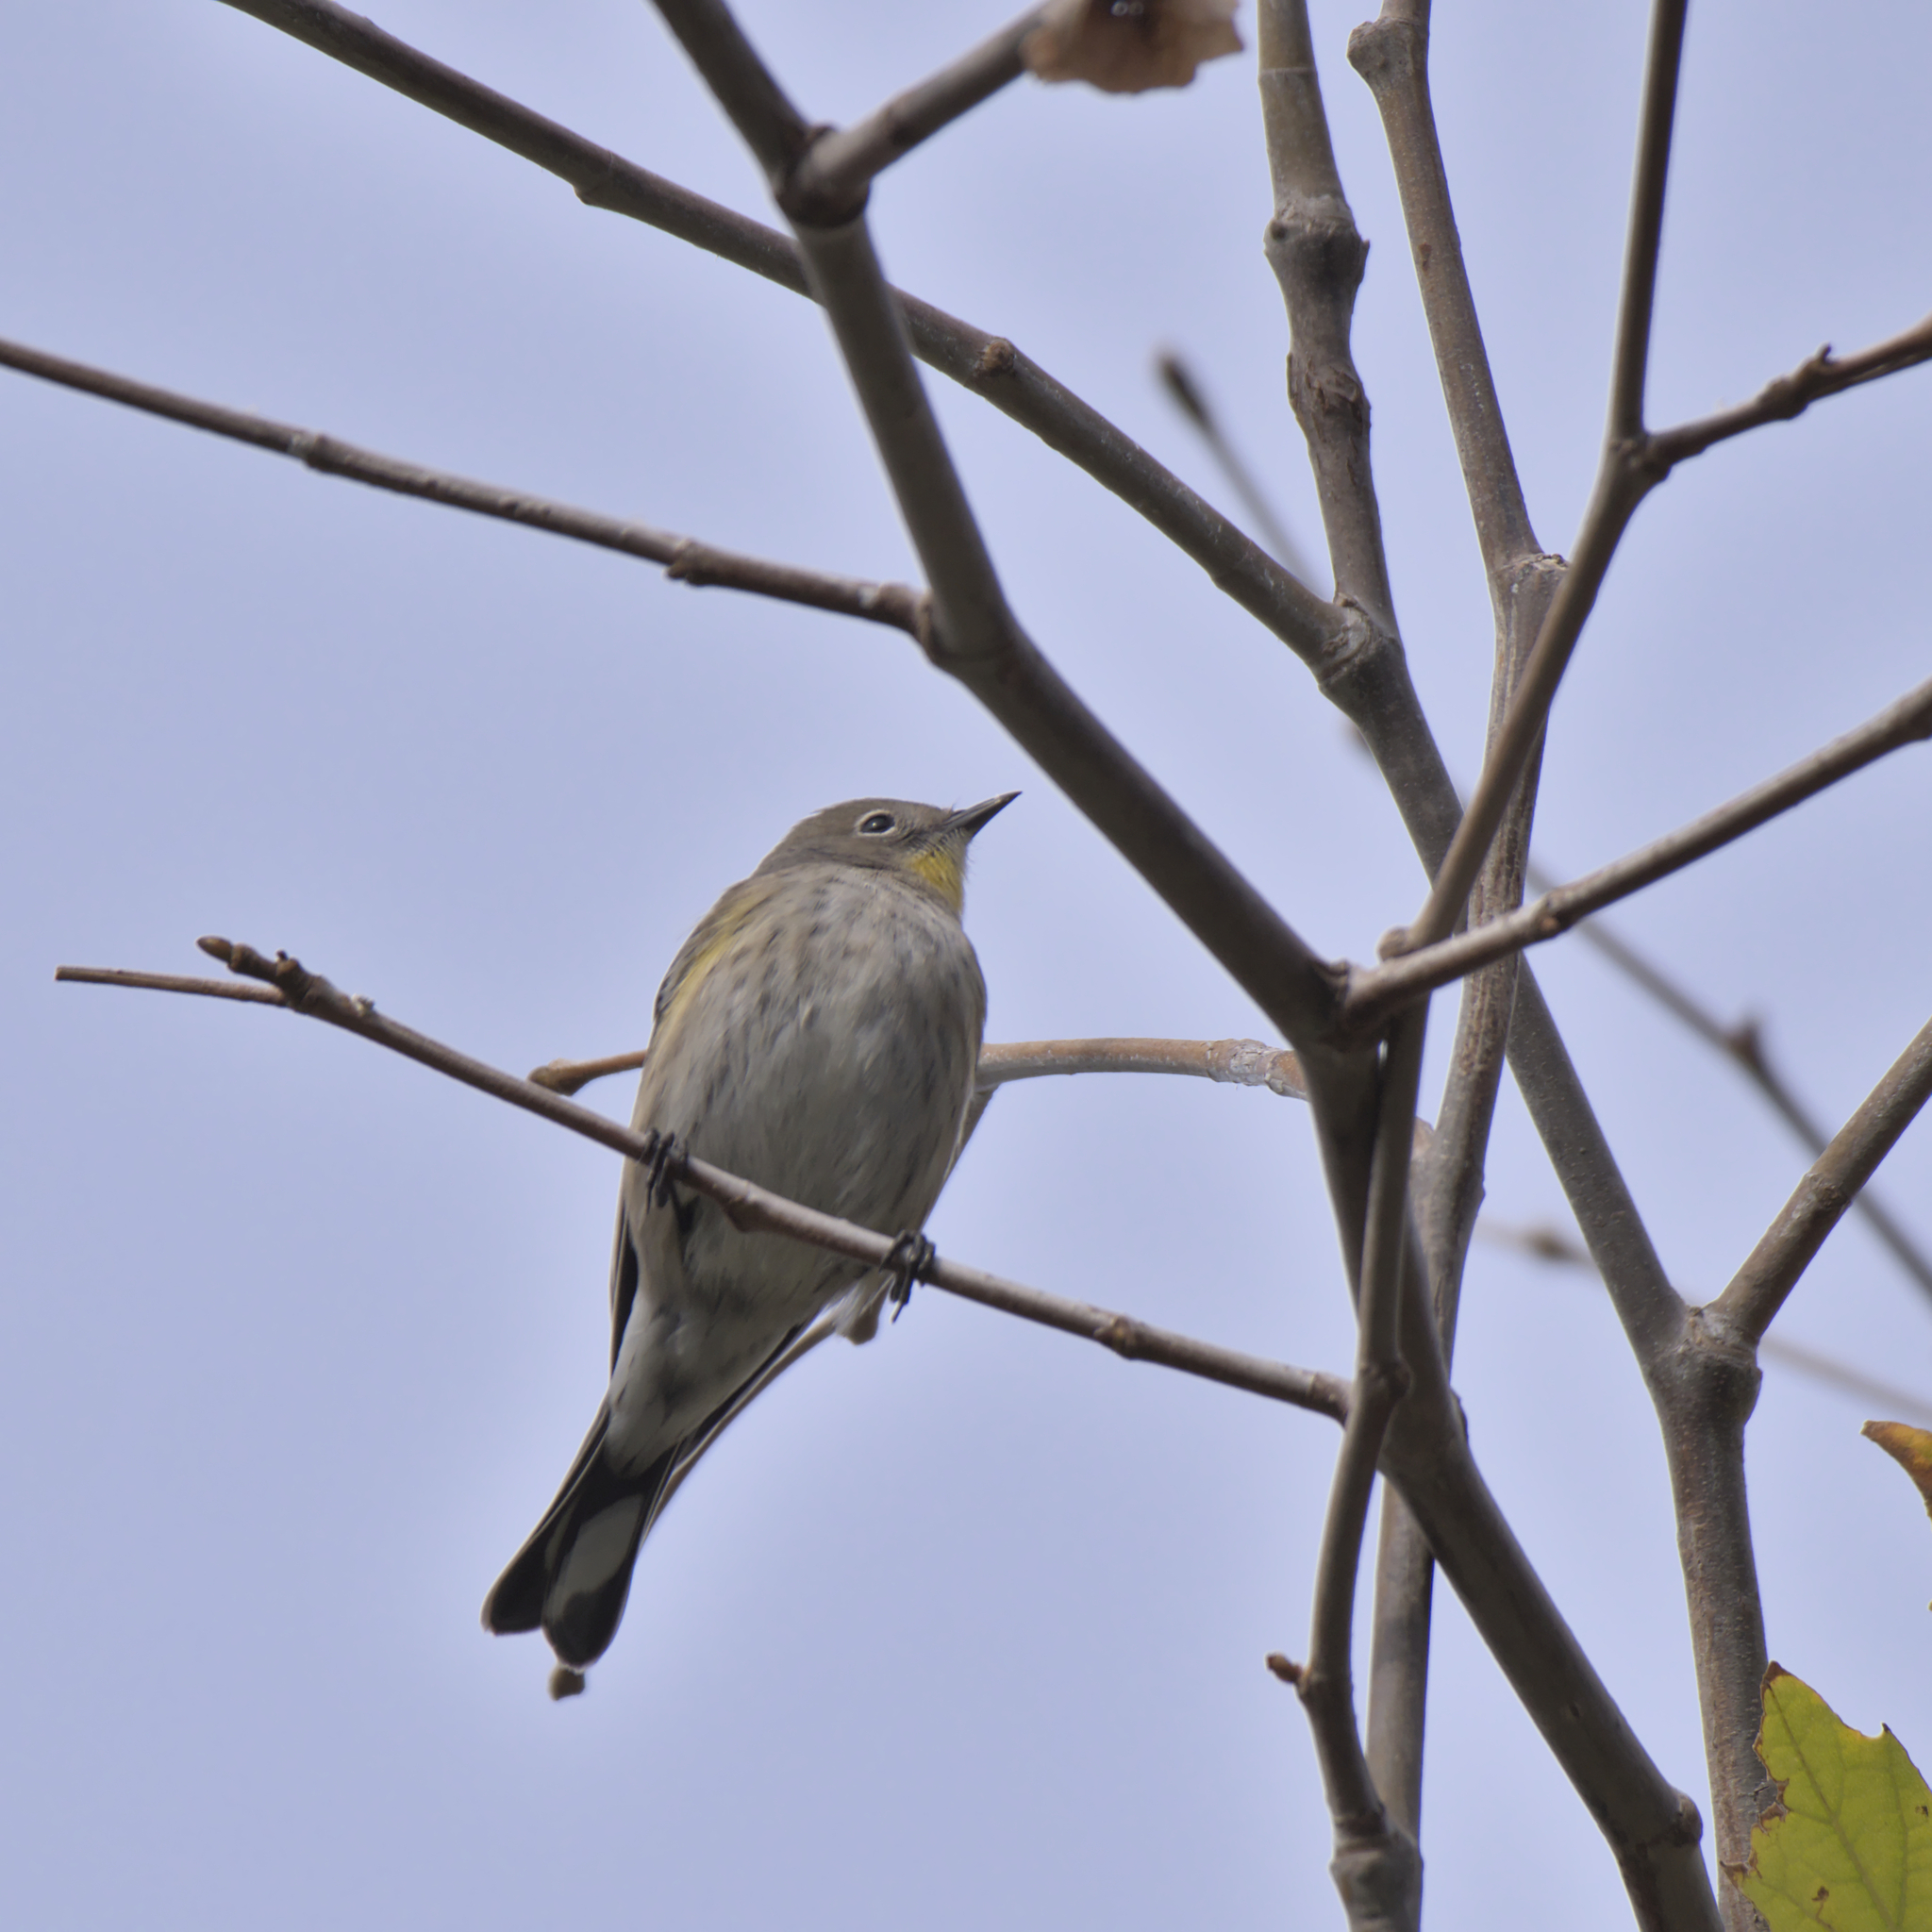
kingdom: Animalia
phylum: Chordata
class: Aves
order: Passeriformes
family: Parulidae
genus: Setophaga
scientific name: Setophaga coronata
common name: Myrtle warbler
